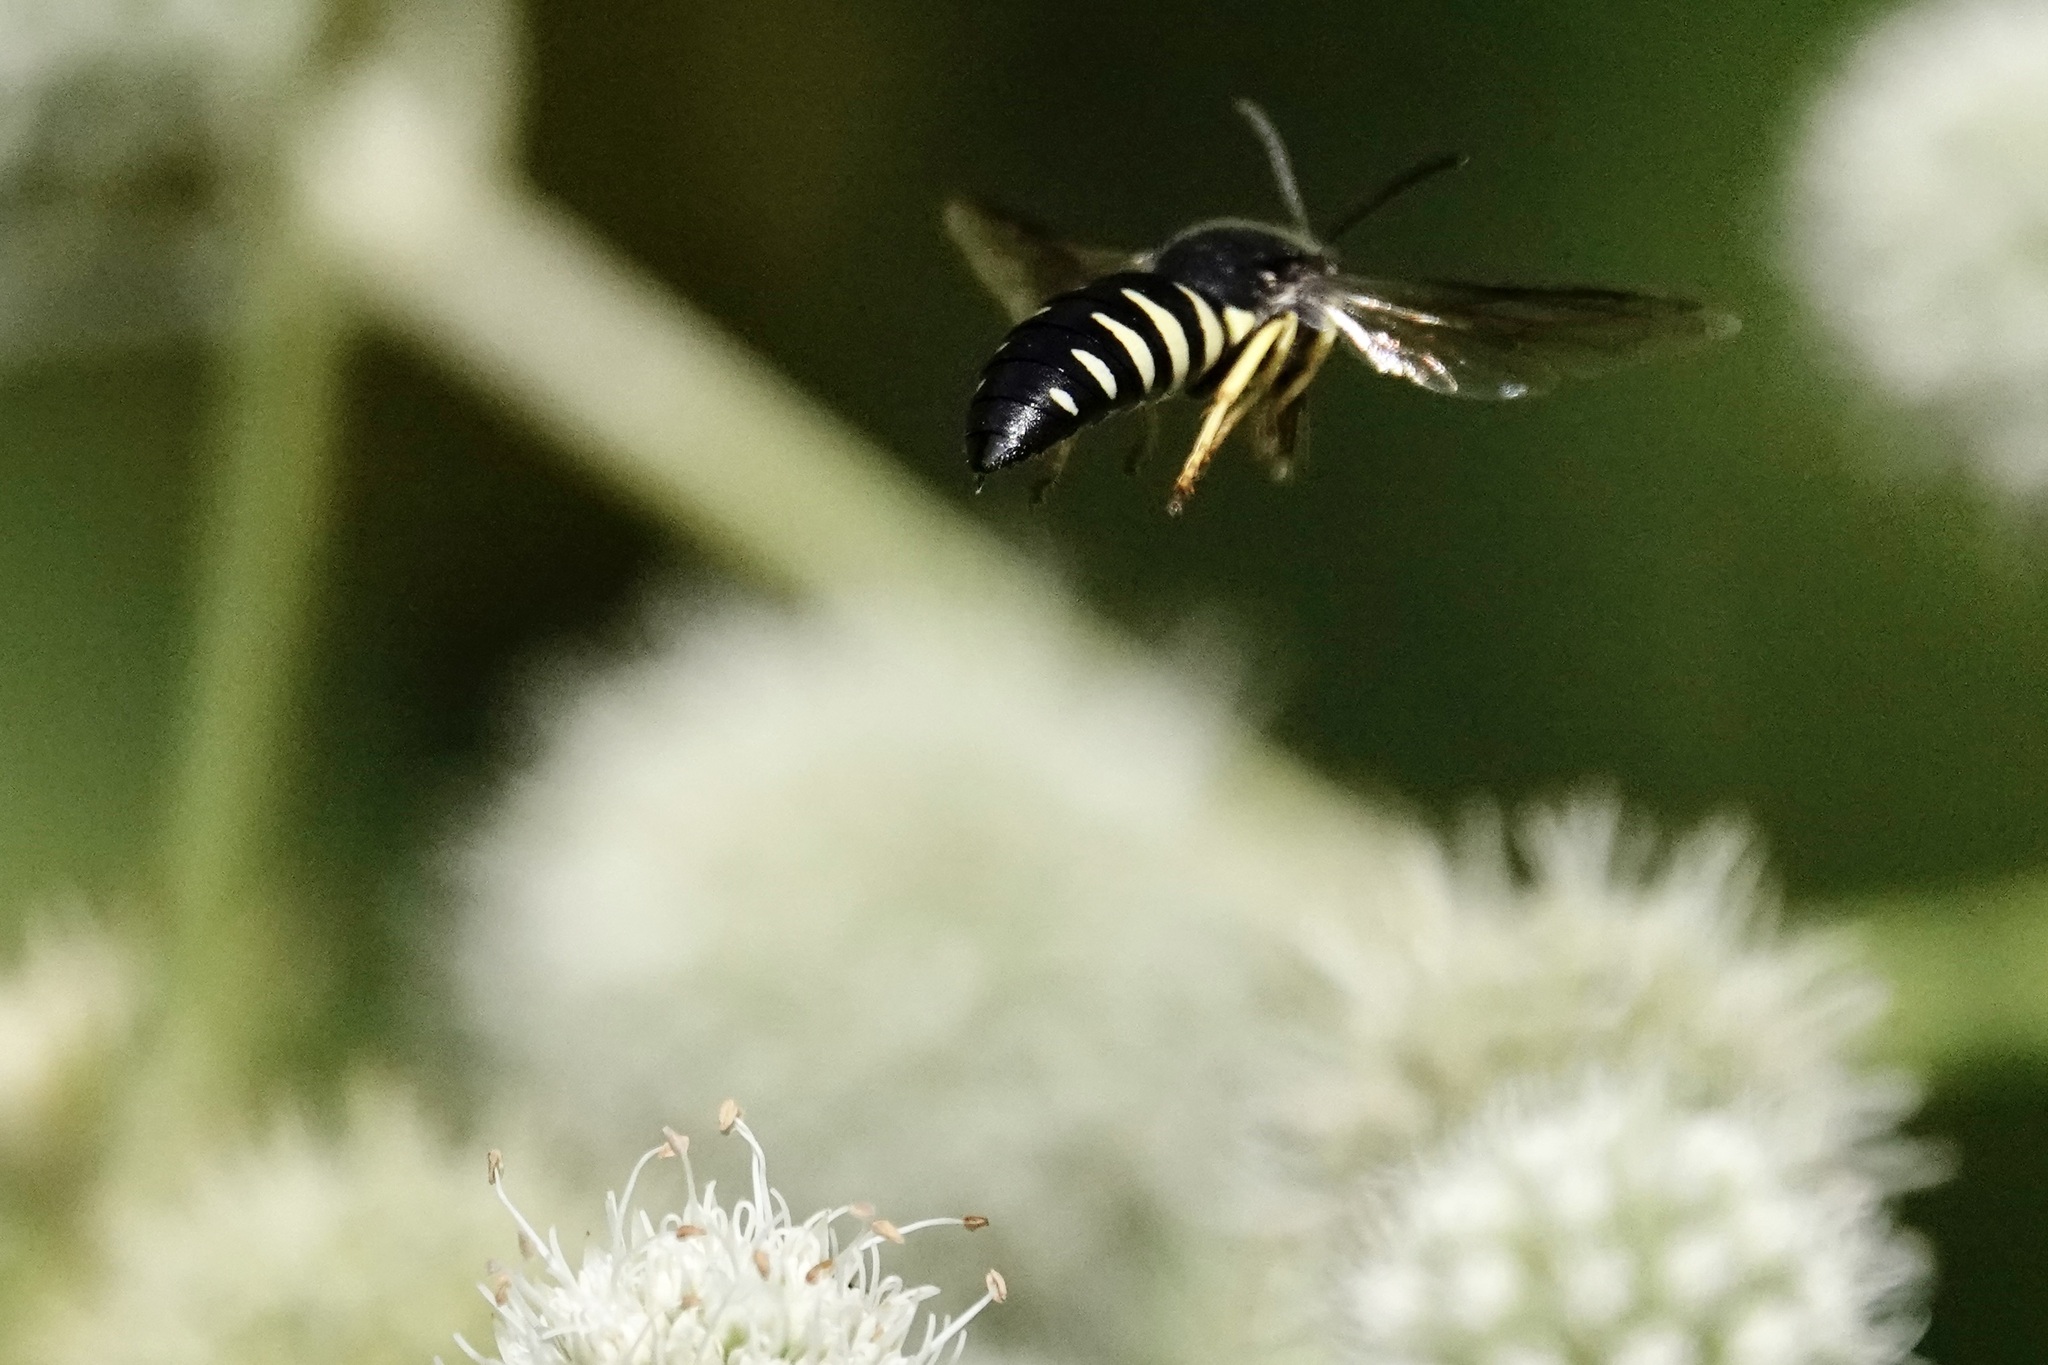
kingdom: Animalia
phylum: Arthropoda
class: Insecta
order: Hymenoptera
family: Crabronidae
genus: Bicyrtes
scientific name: Bicyrtes quadrifasciatus
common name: Four-banded stink bug hunter wasp
